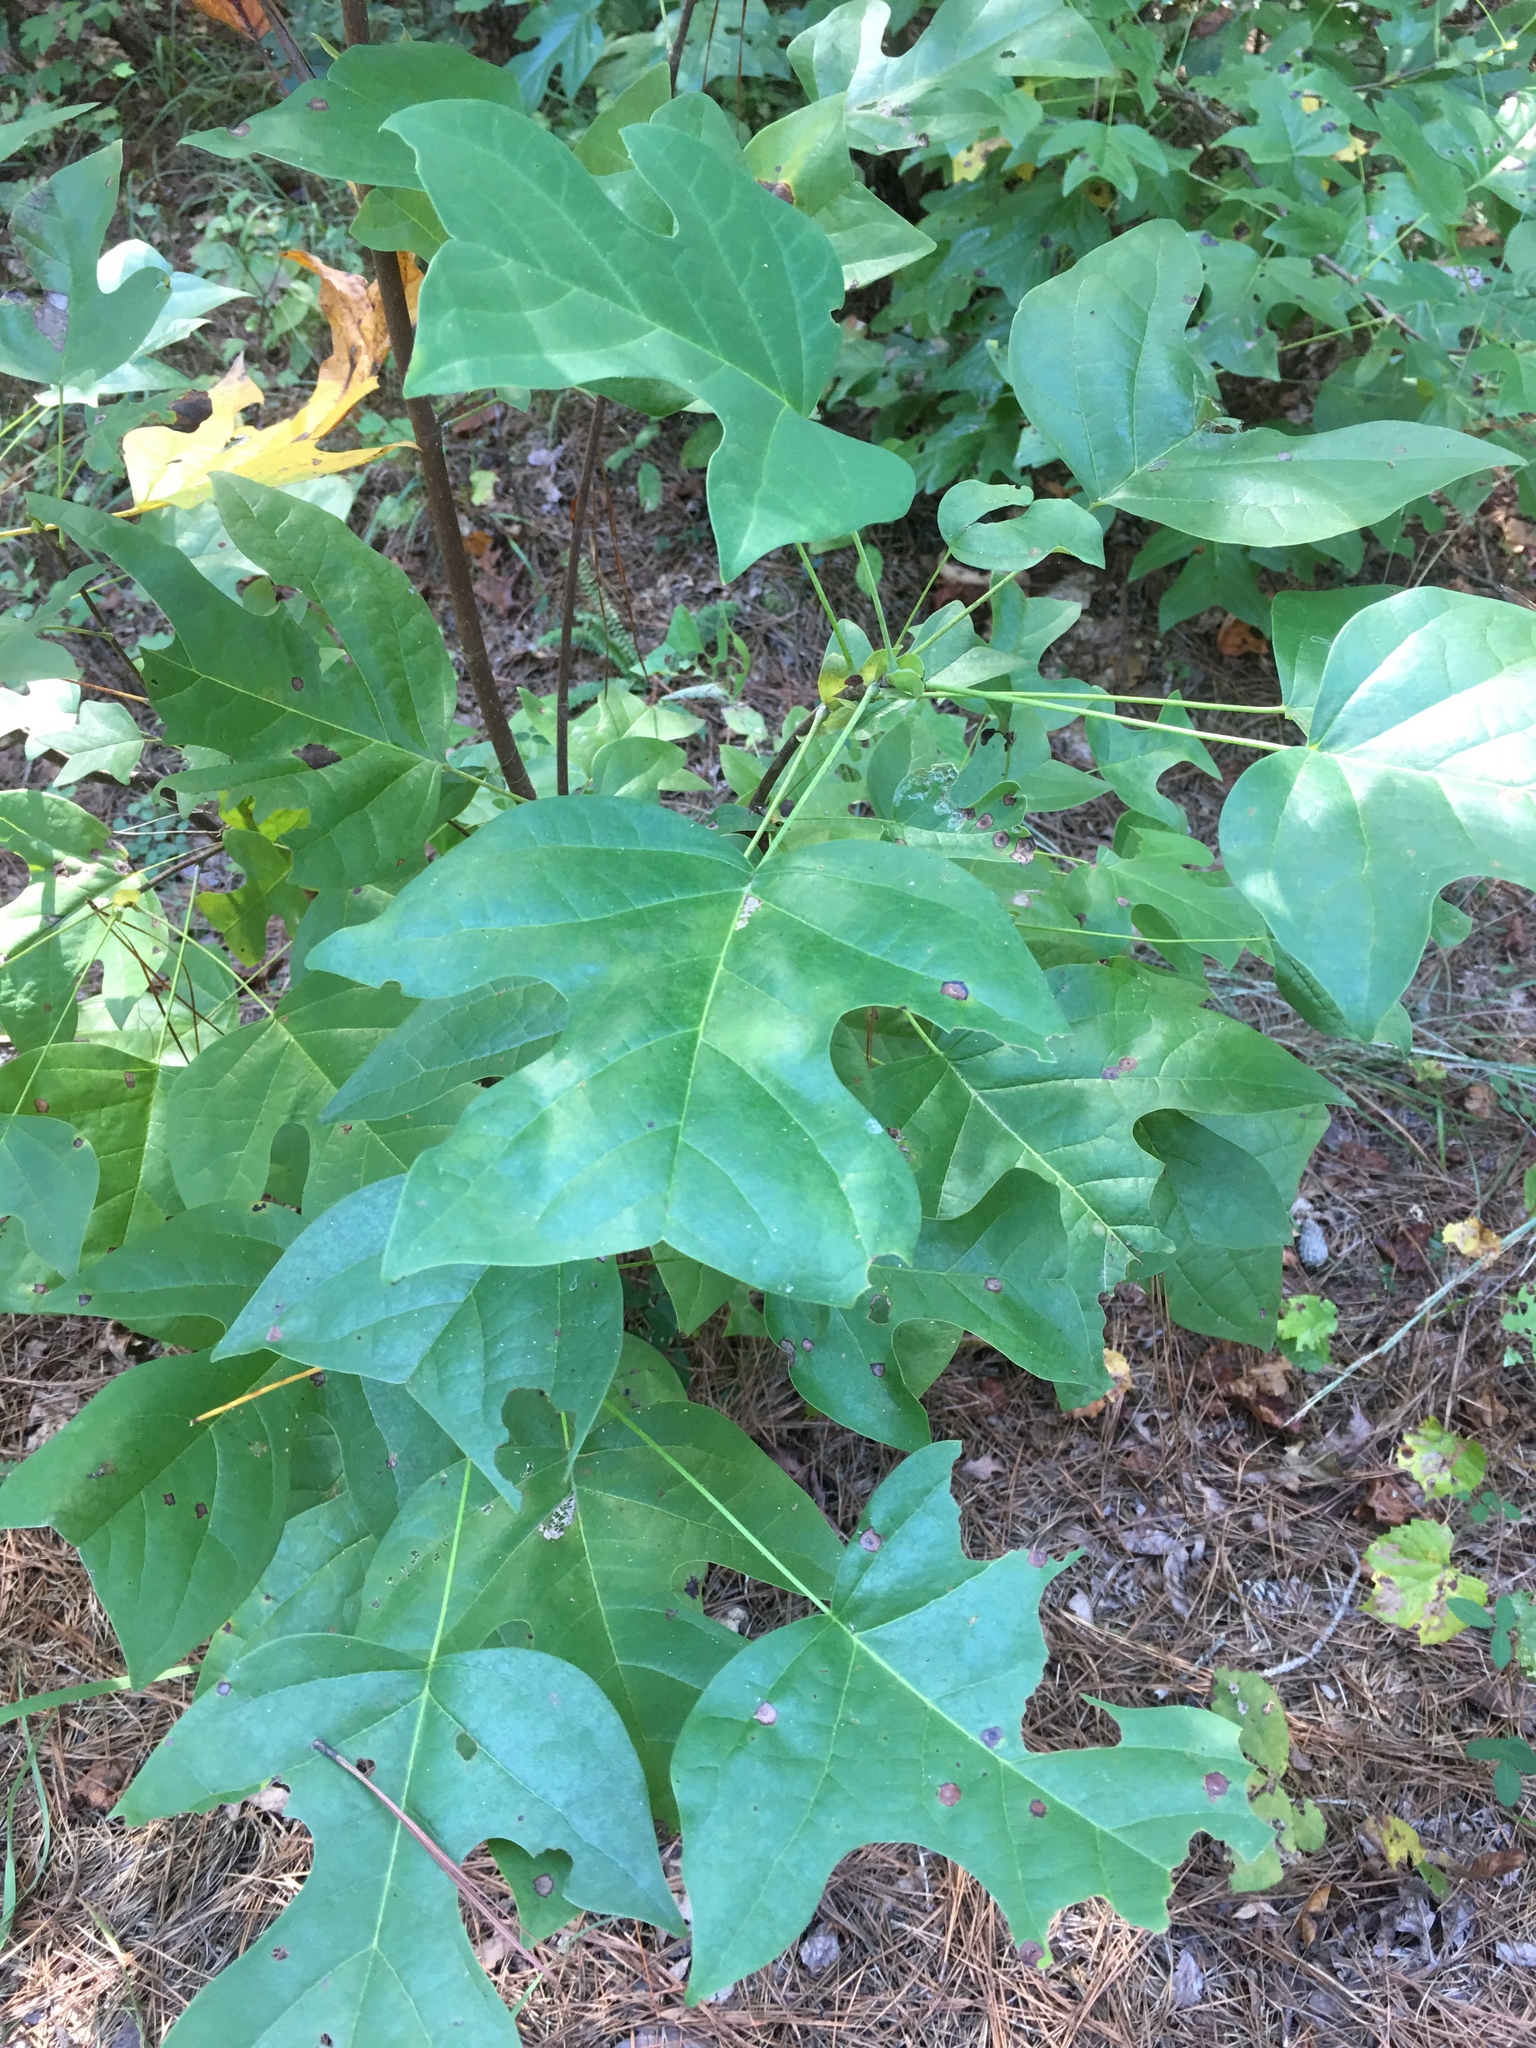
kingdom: Plantae
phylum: Tracheophyta
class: Magnoliopsida
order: Magnoliales
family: Magnoliaceae
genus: Liriodendron
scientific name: Liriodendron tulipifera
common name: Tulip tree
